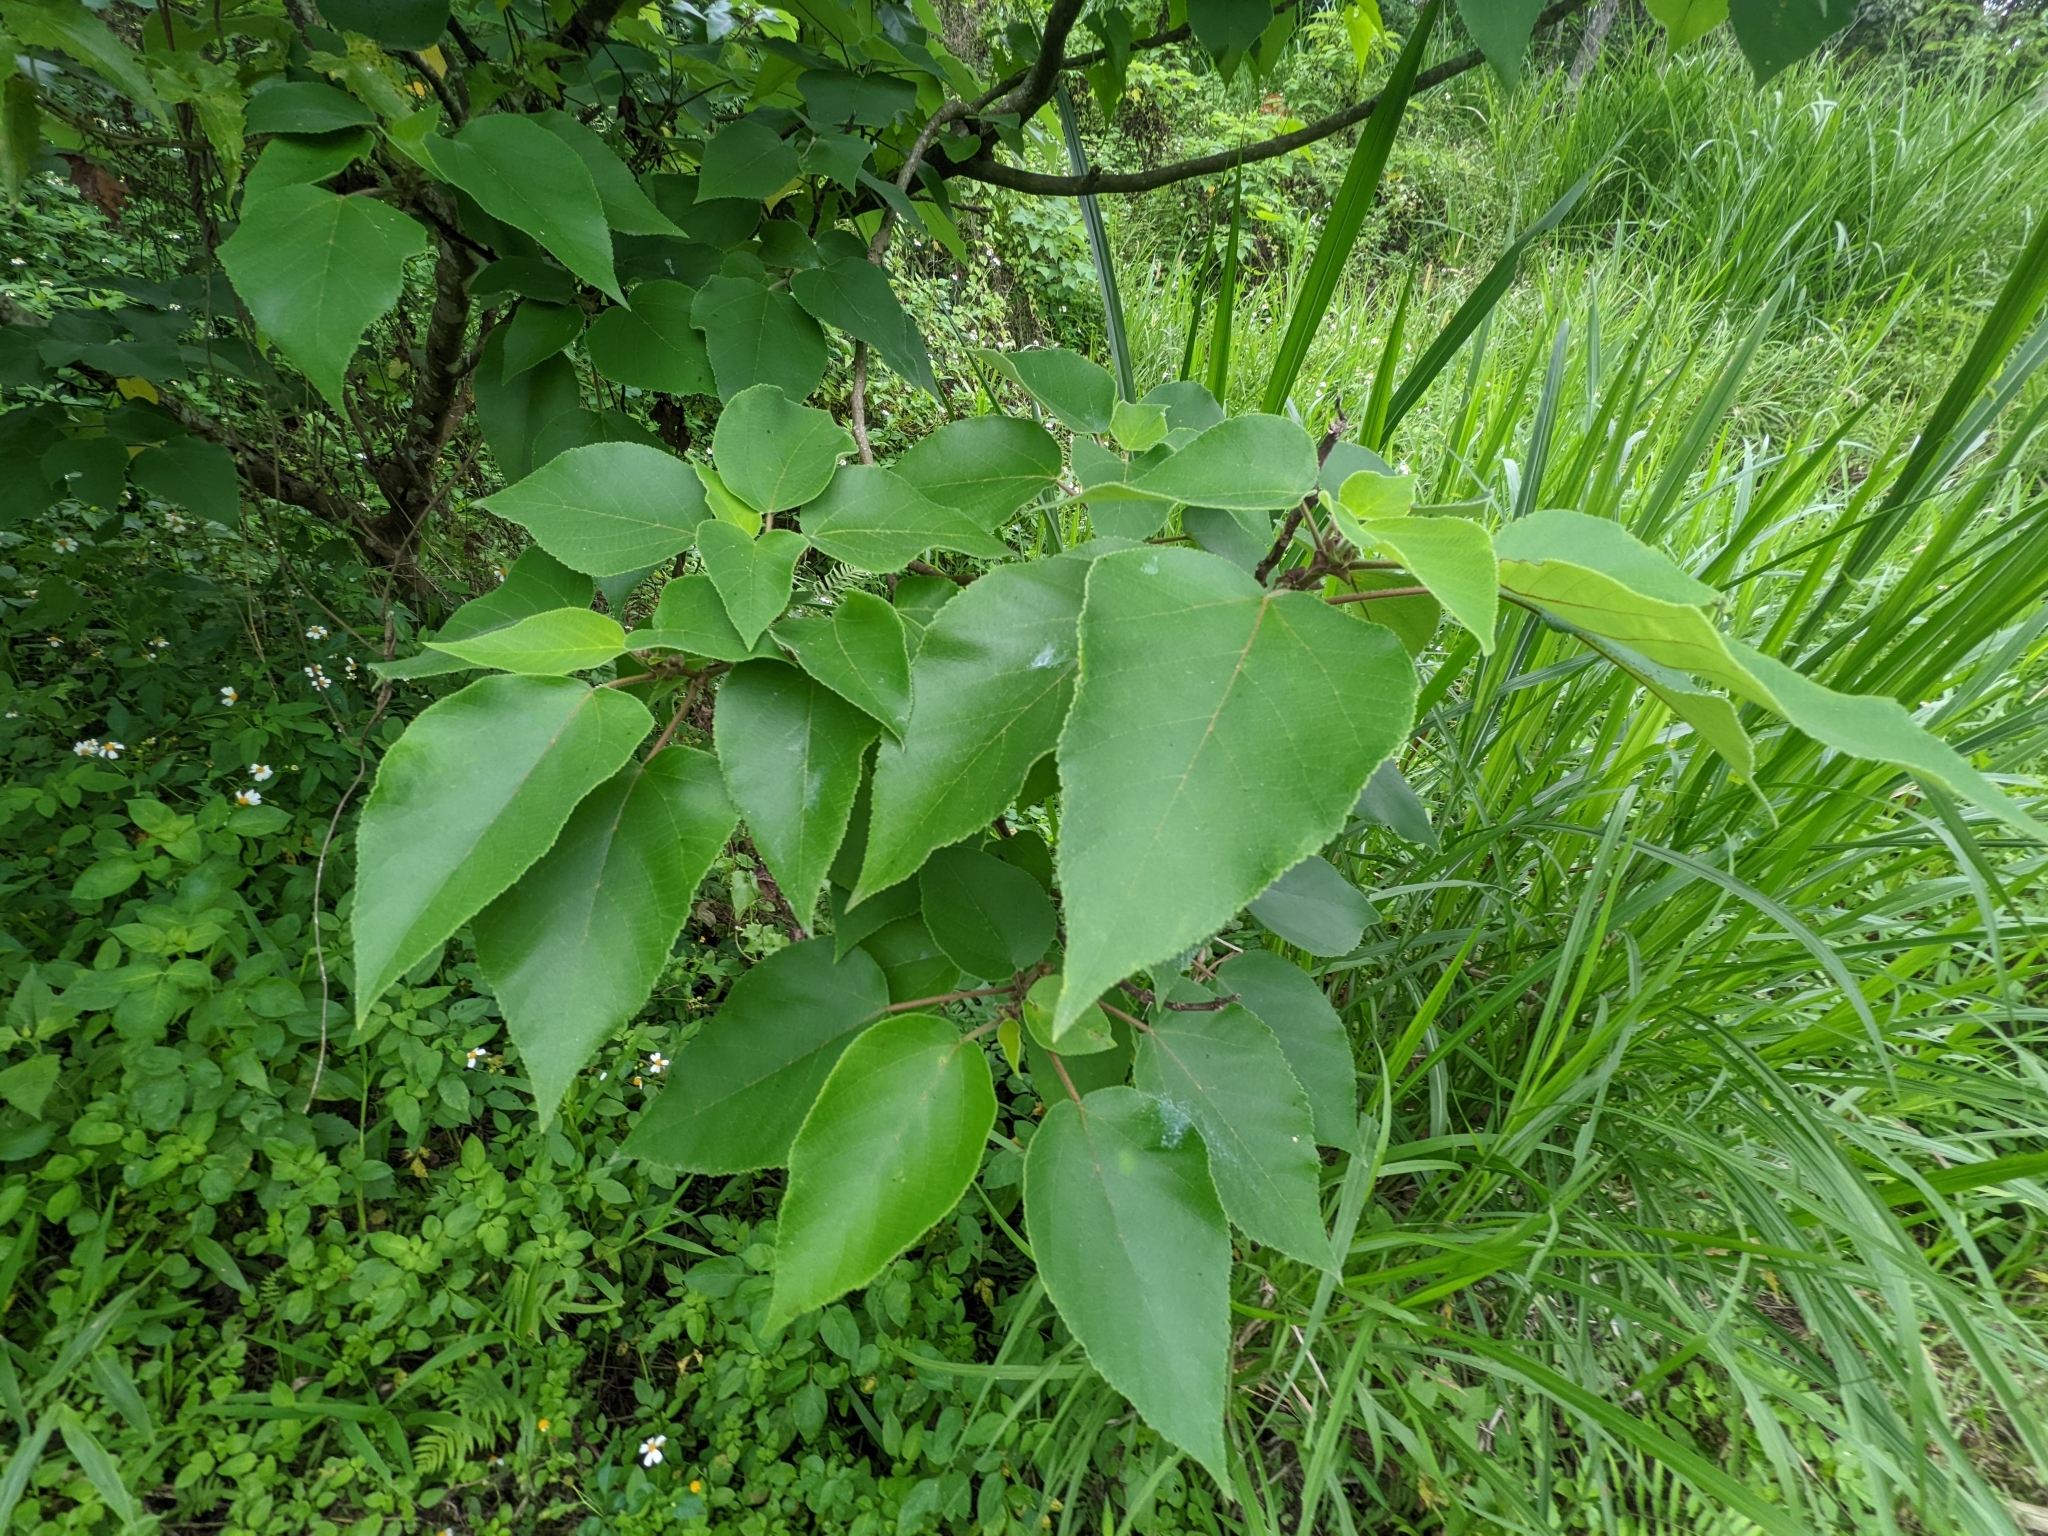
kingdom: Plantae
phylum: Tracheophyta
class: Magnoliopsida
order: Rosales
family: Moraceae
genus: Broussonetia
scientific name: Broussonetia papyrifera
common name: Paper mulberry
